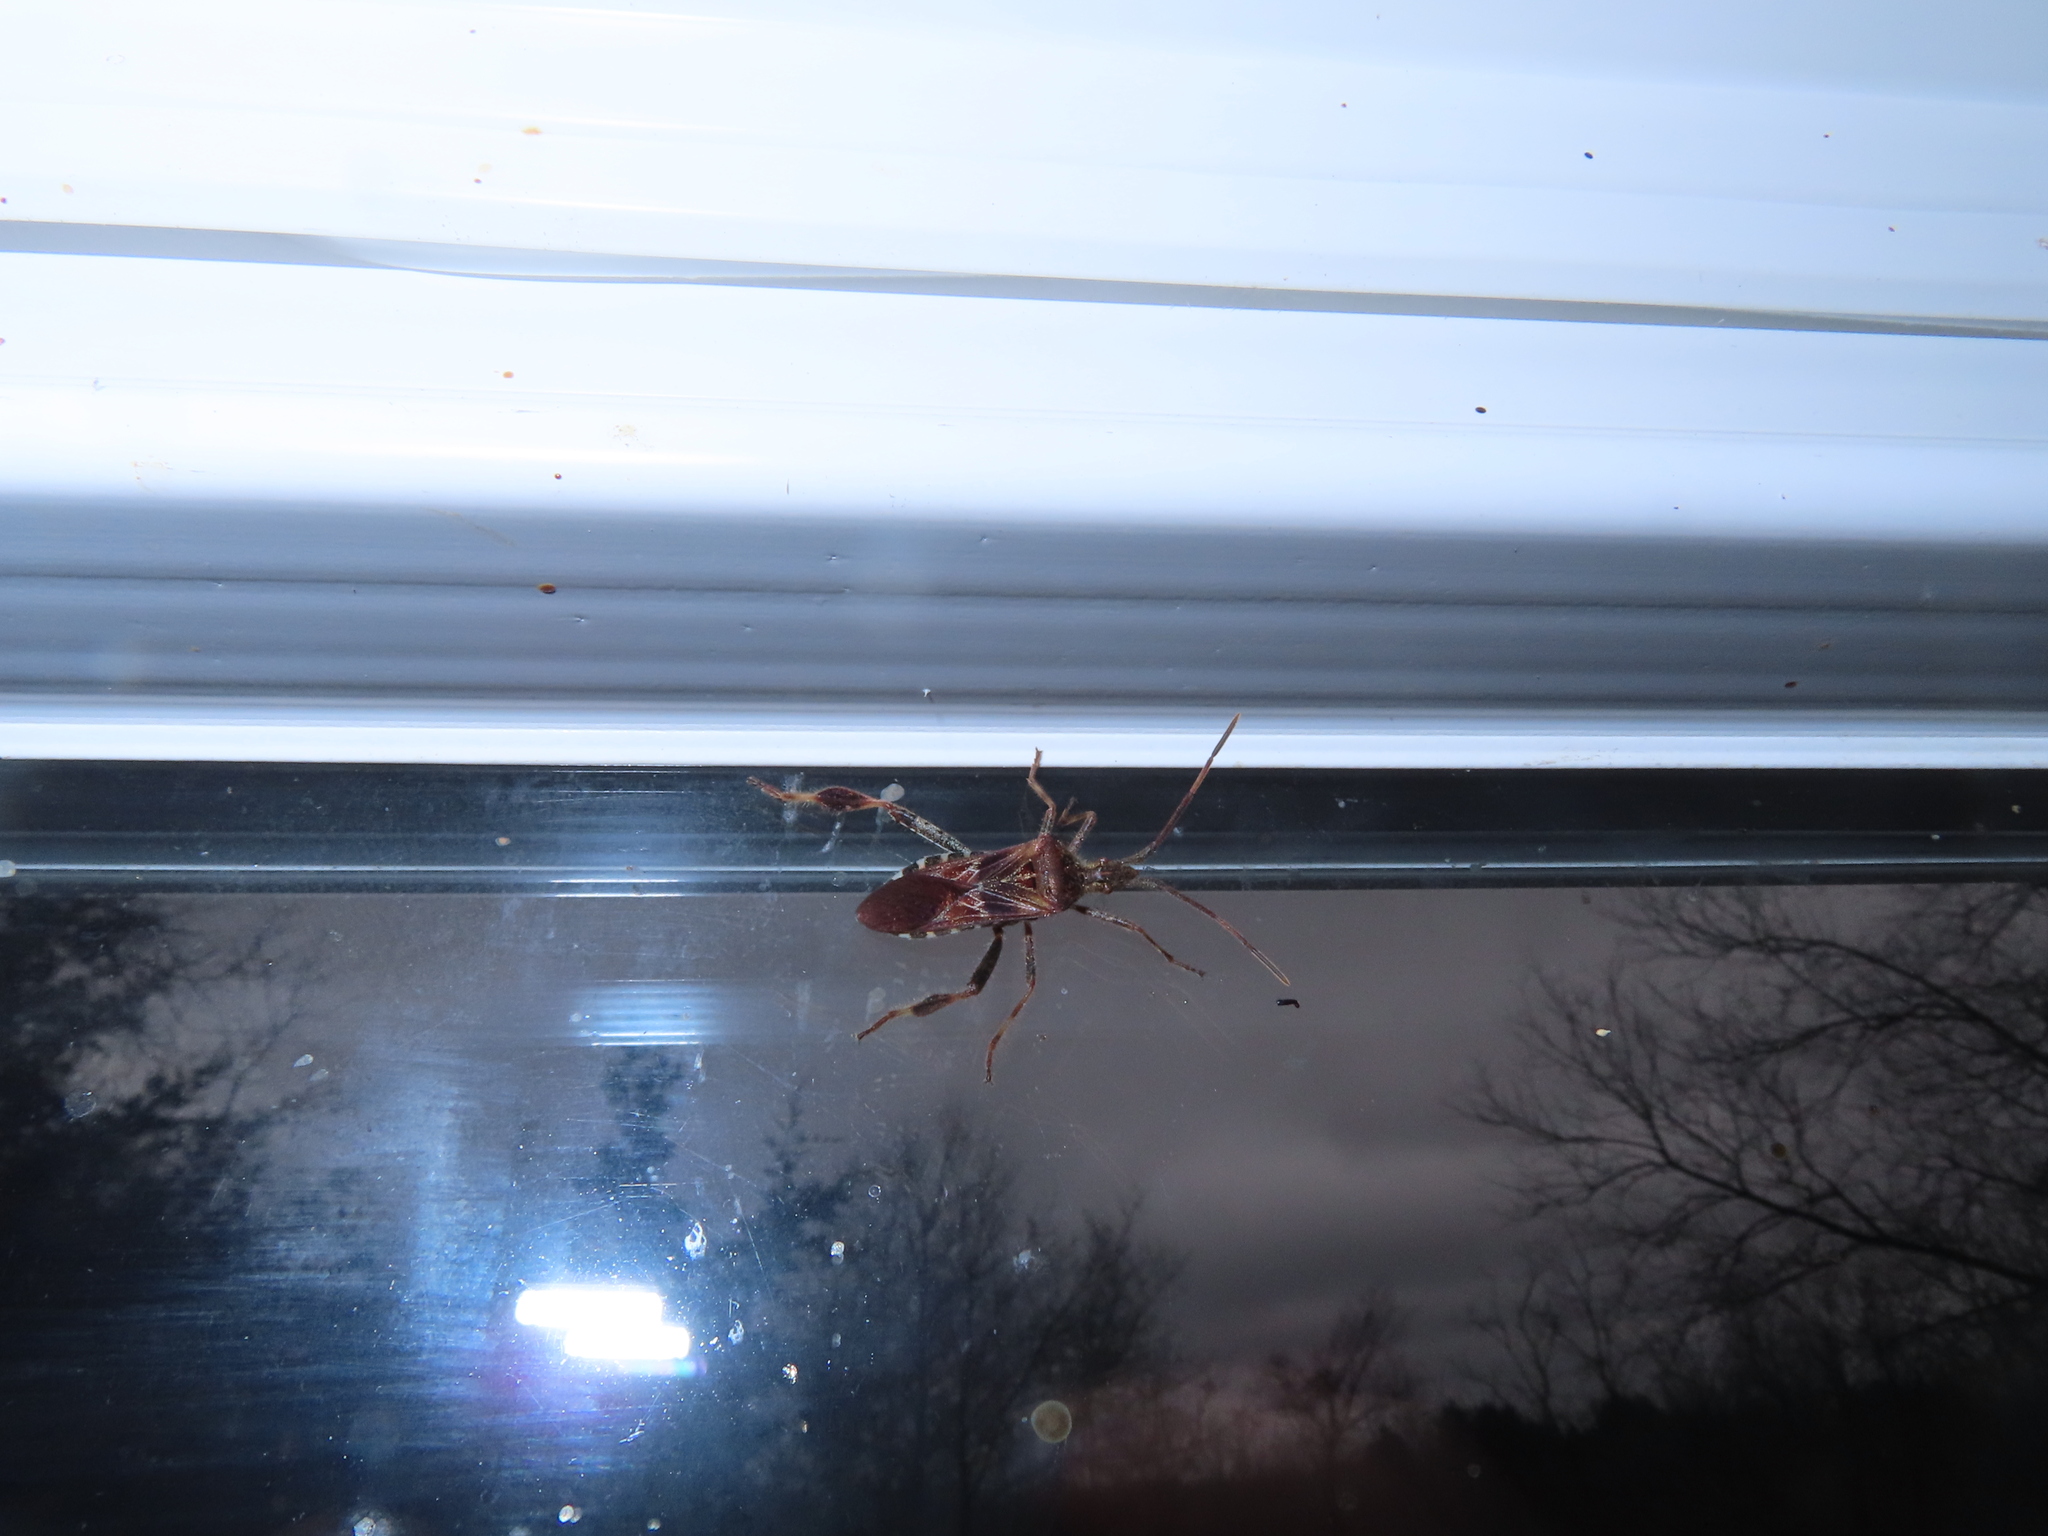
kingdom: Animalia
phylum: Arthropoda
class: Insecta
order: Hemiptera
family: Coreidae
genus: Leptoglossus
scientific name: Leptoglossus occidentalis
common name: Western conifer-seed bug
